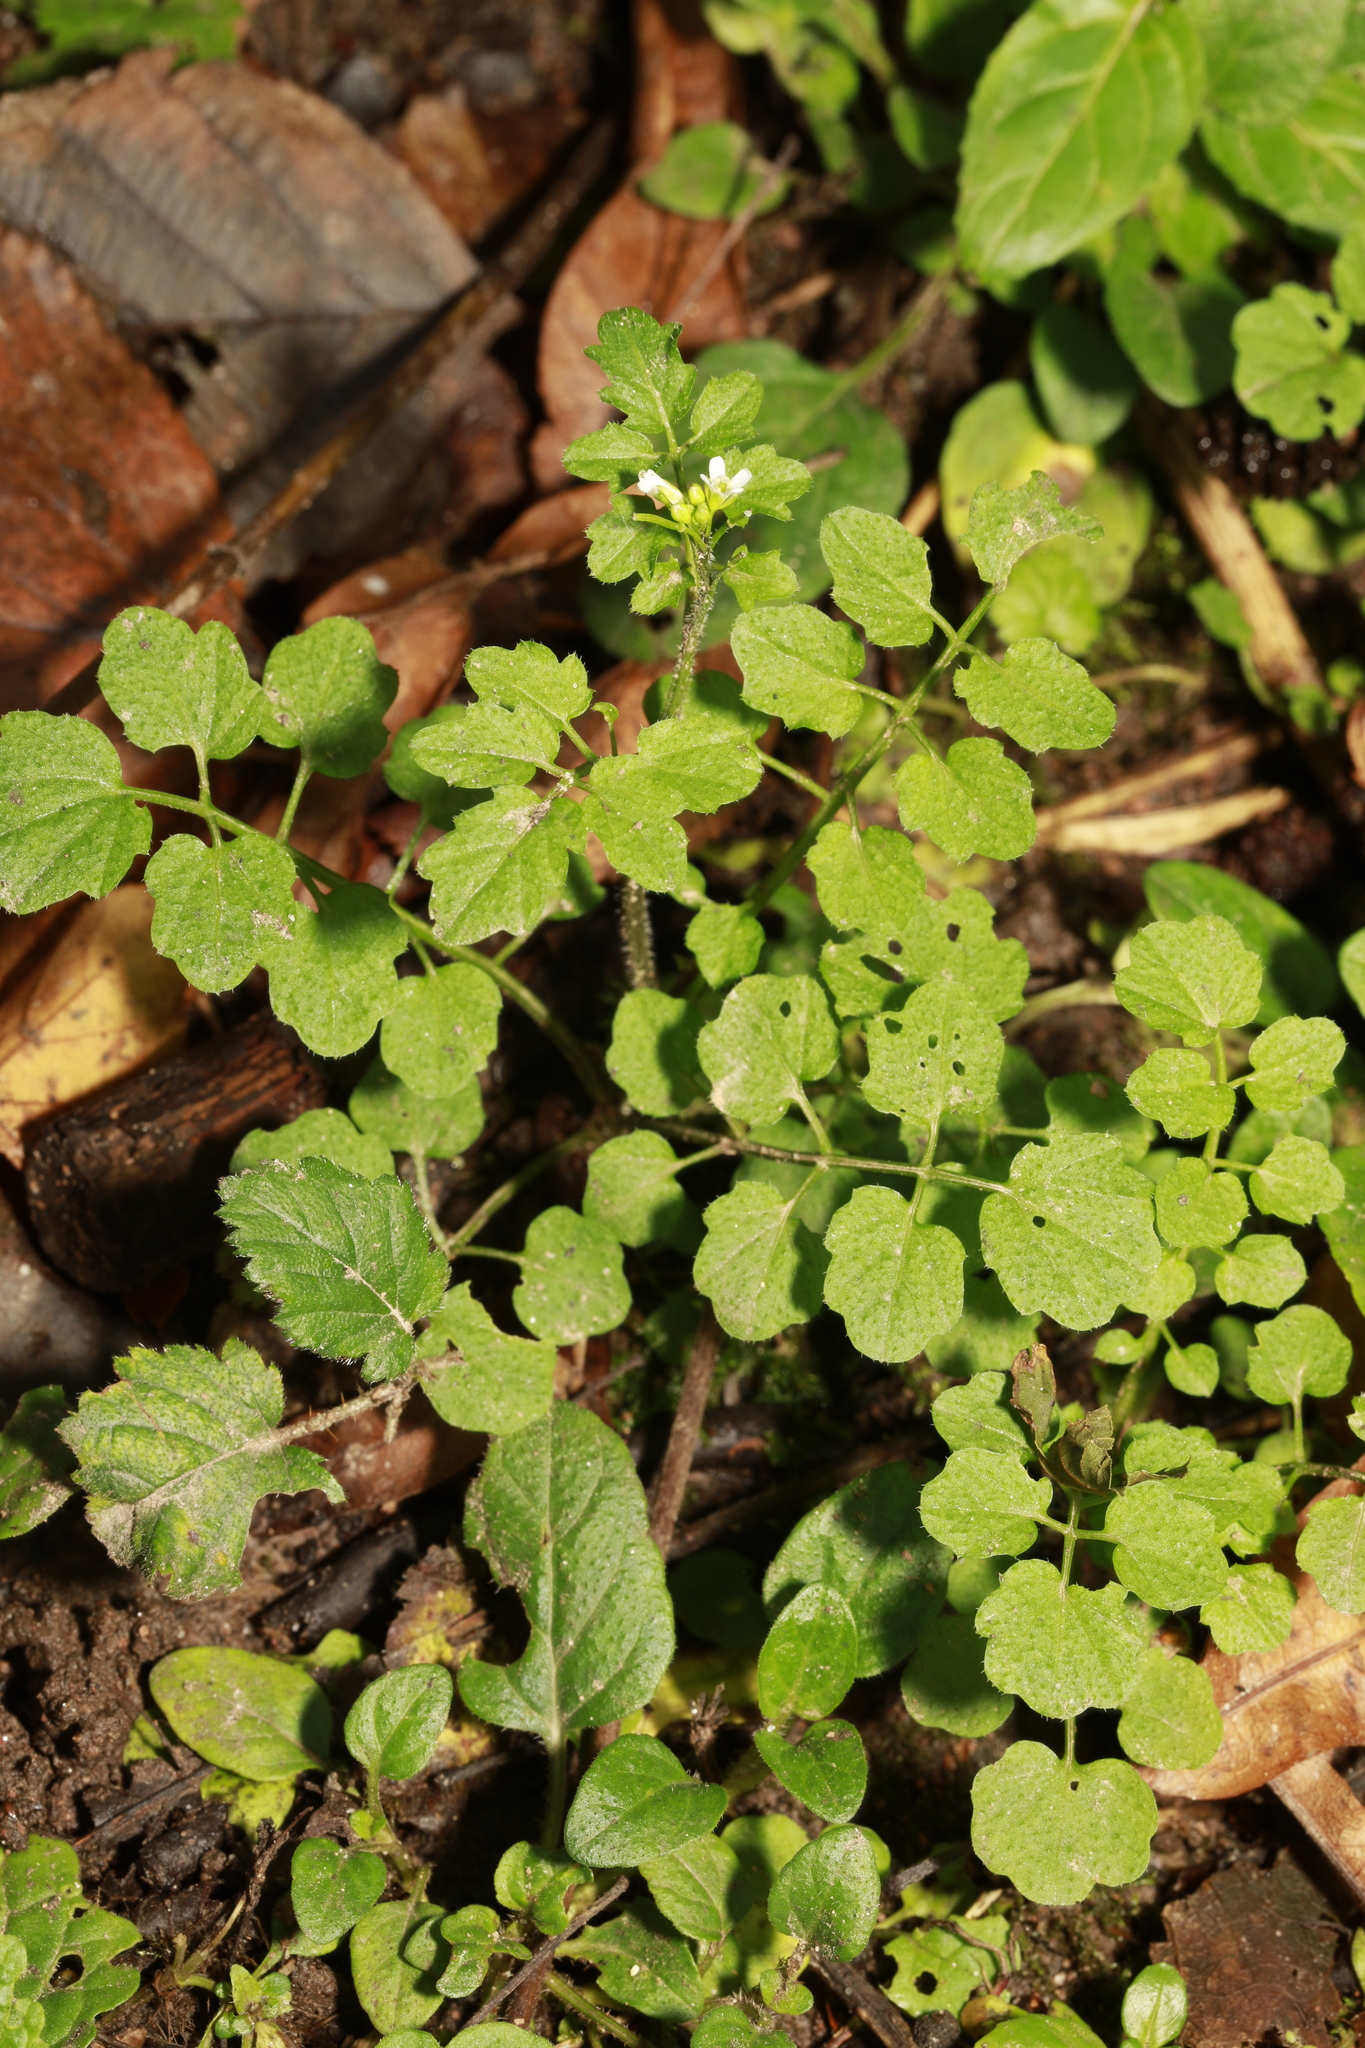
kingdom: Plantae
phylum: Tracheophyta
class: Magnoliopsida
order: Brassicales
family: Brassicaceae
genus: Cardamine
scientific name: Cardamine flexuosa
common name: Woodland bittercress
